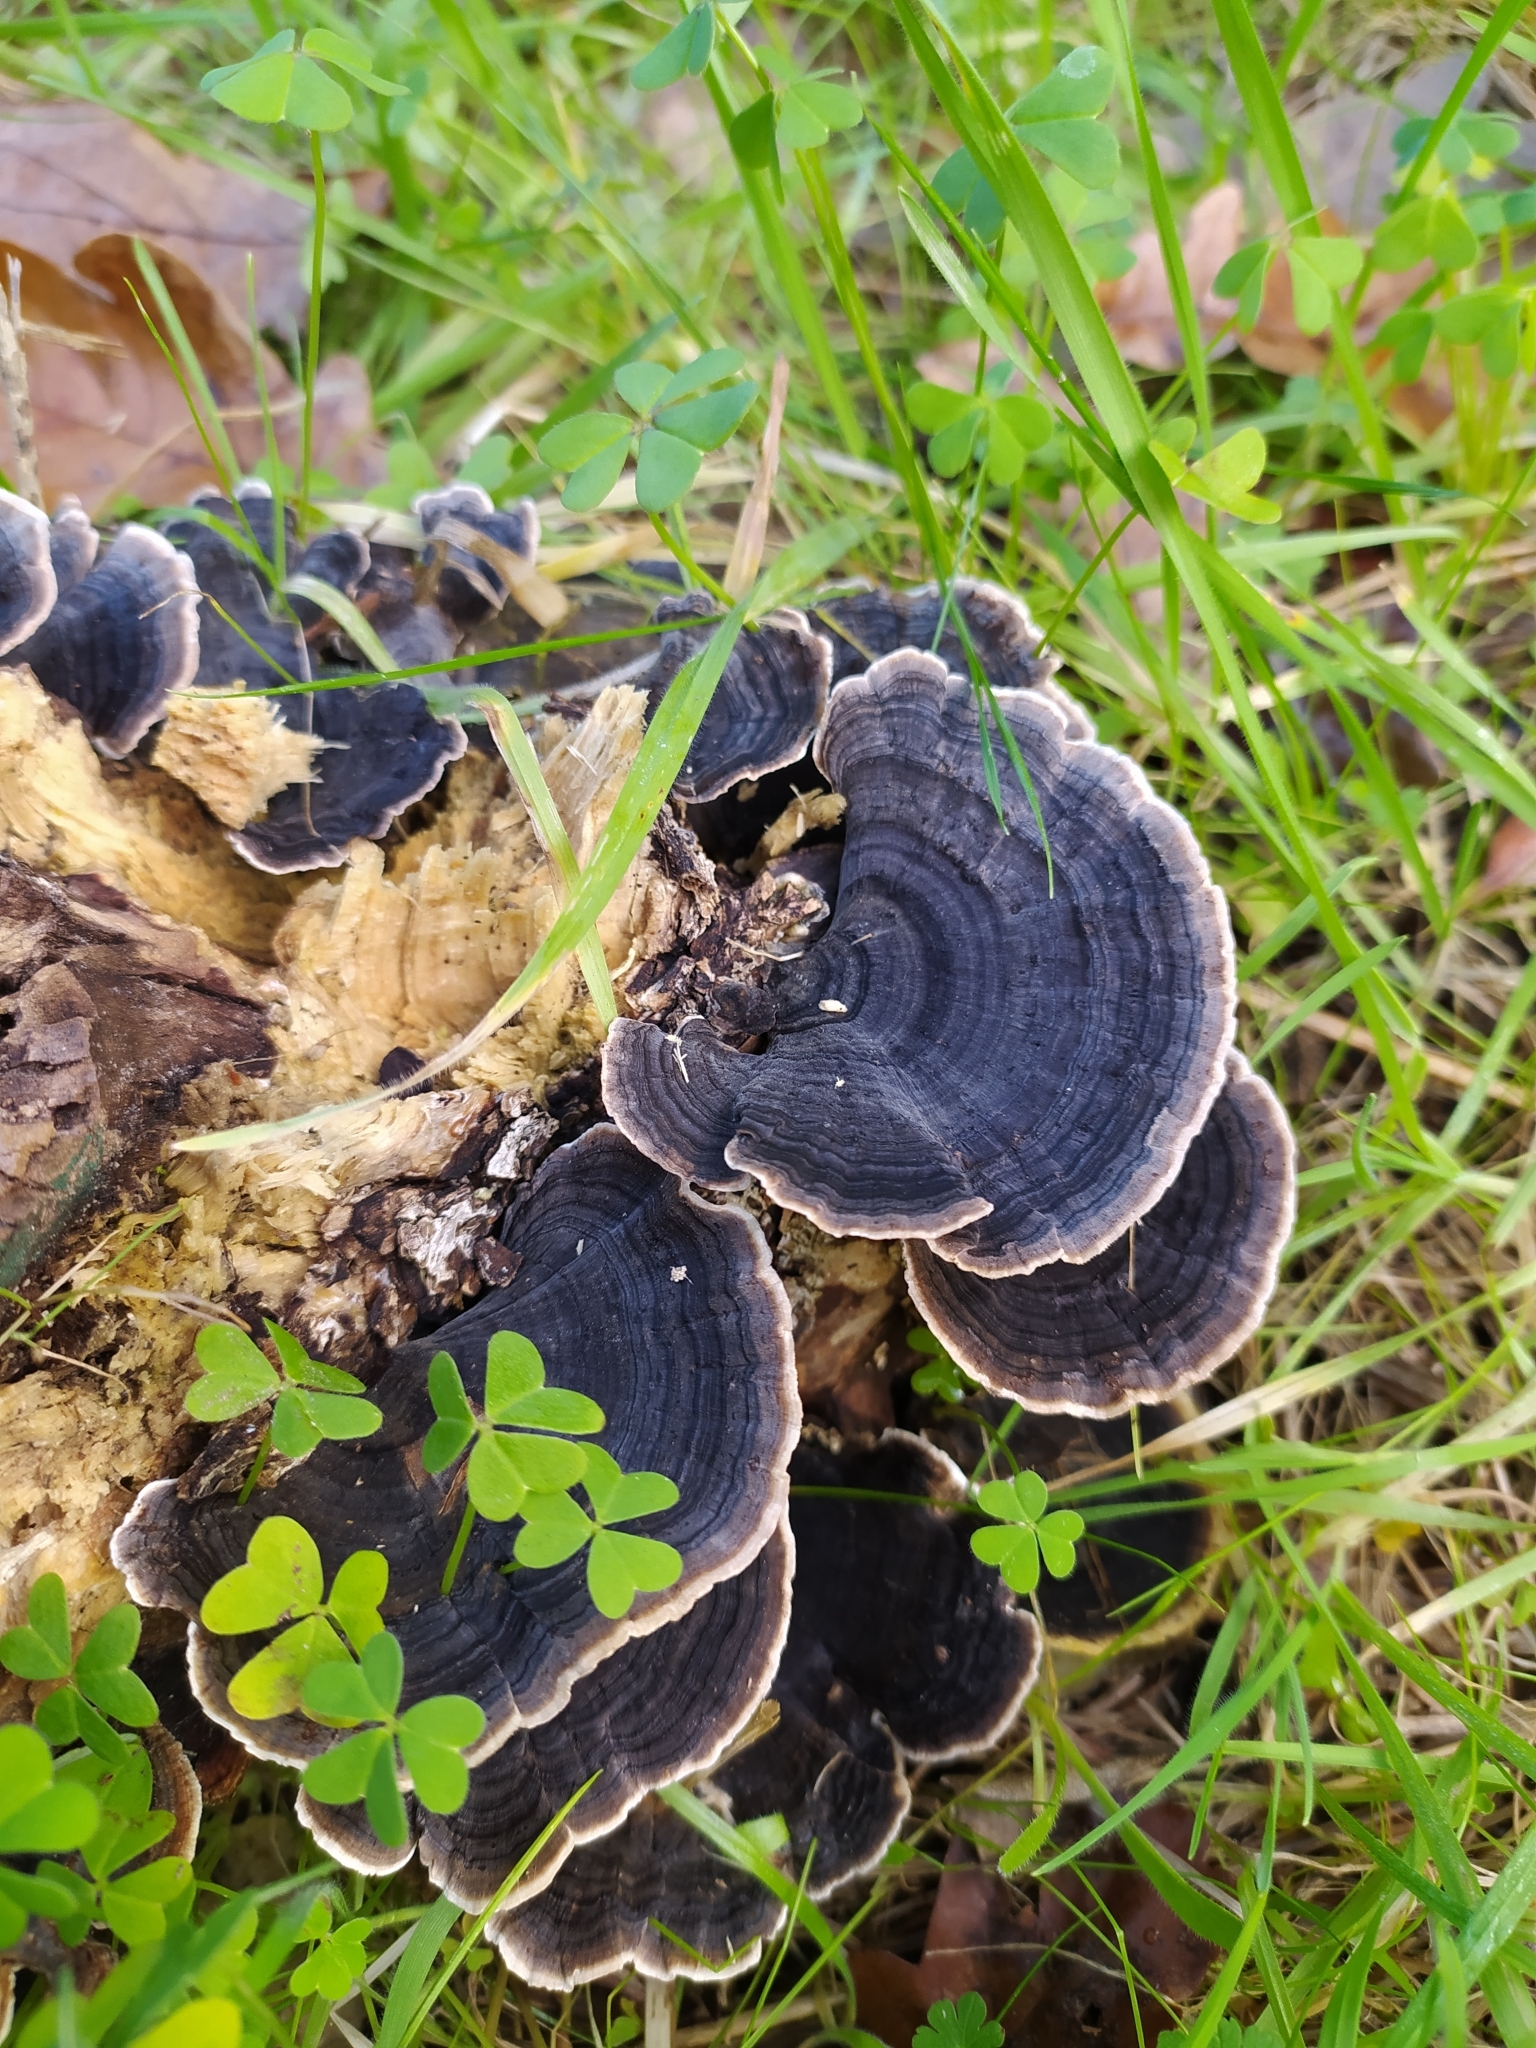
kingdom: Fungi
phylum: Basidiomycota
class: Agaricomycetes
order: Polyporales
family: Polyporaceae
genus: Trametes
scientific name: Trametes versicolor
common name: Turkeytail
